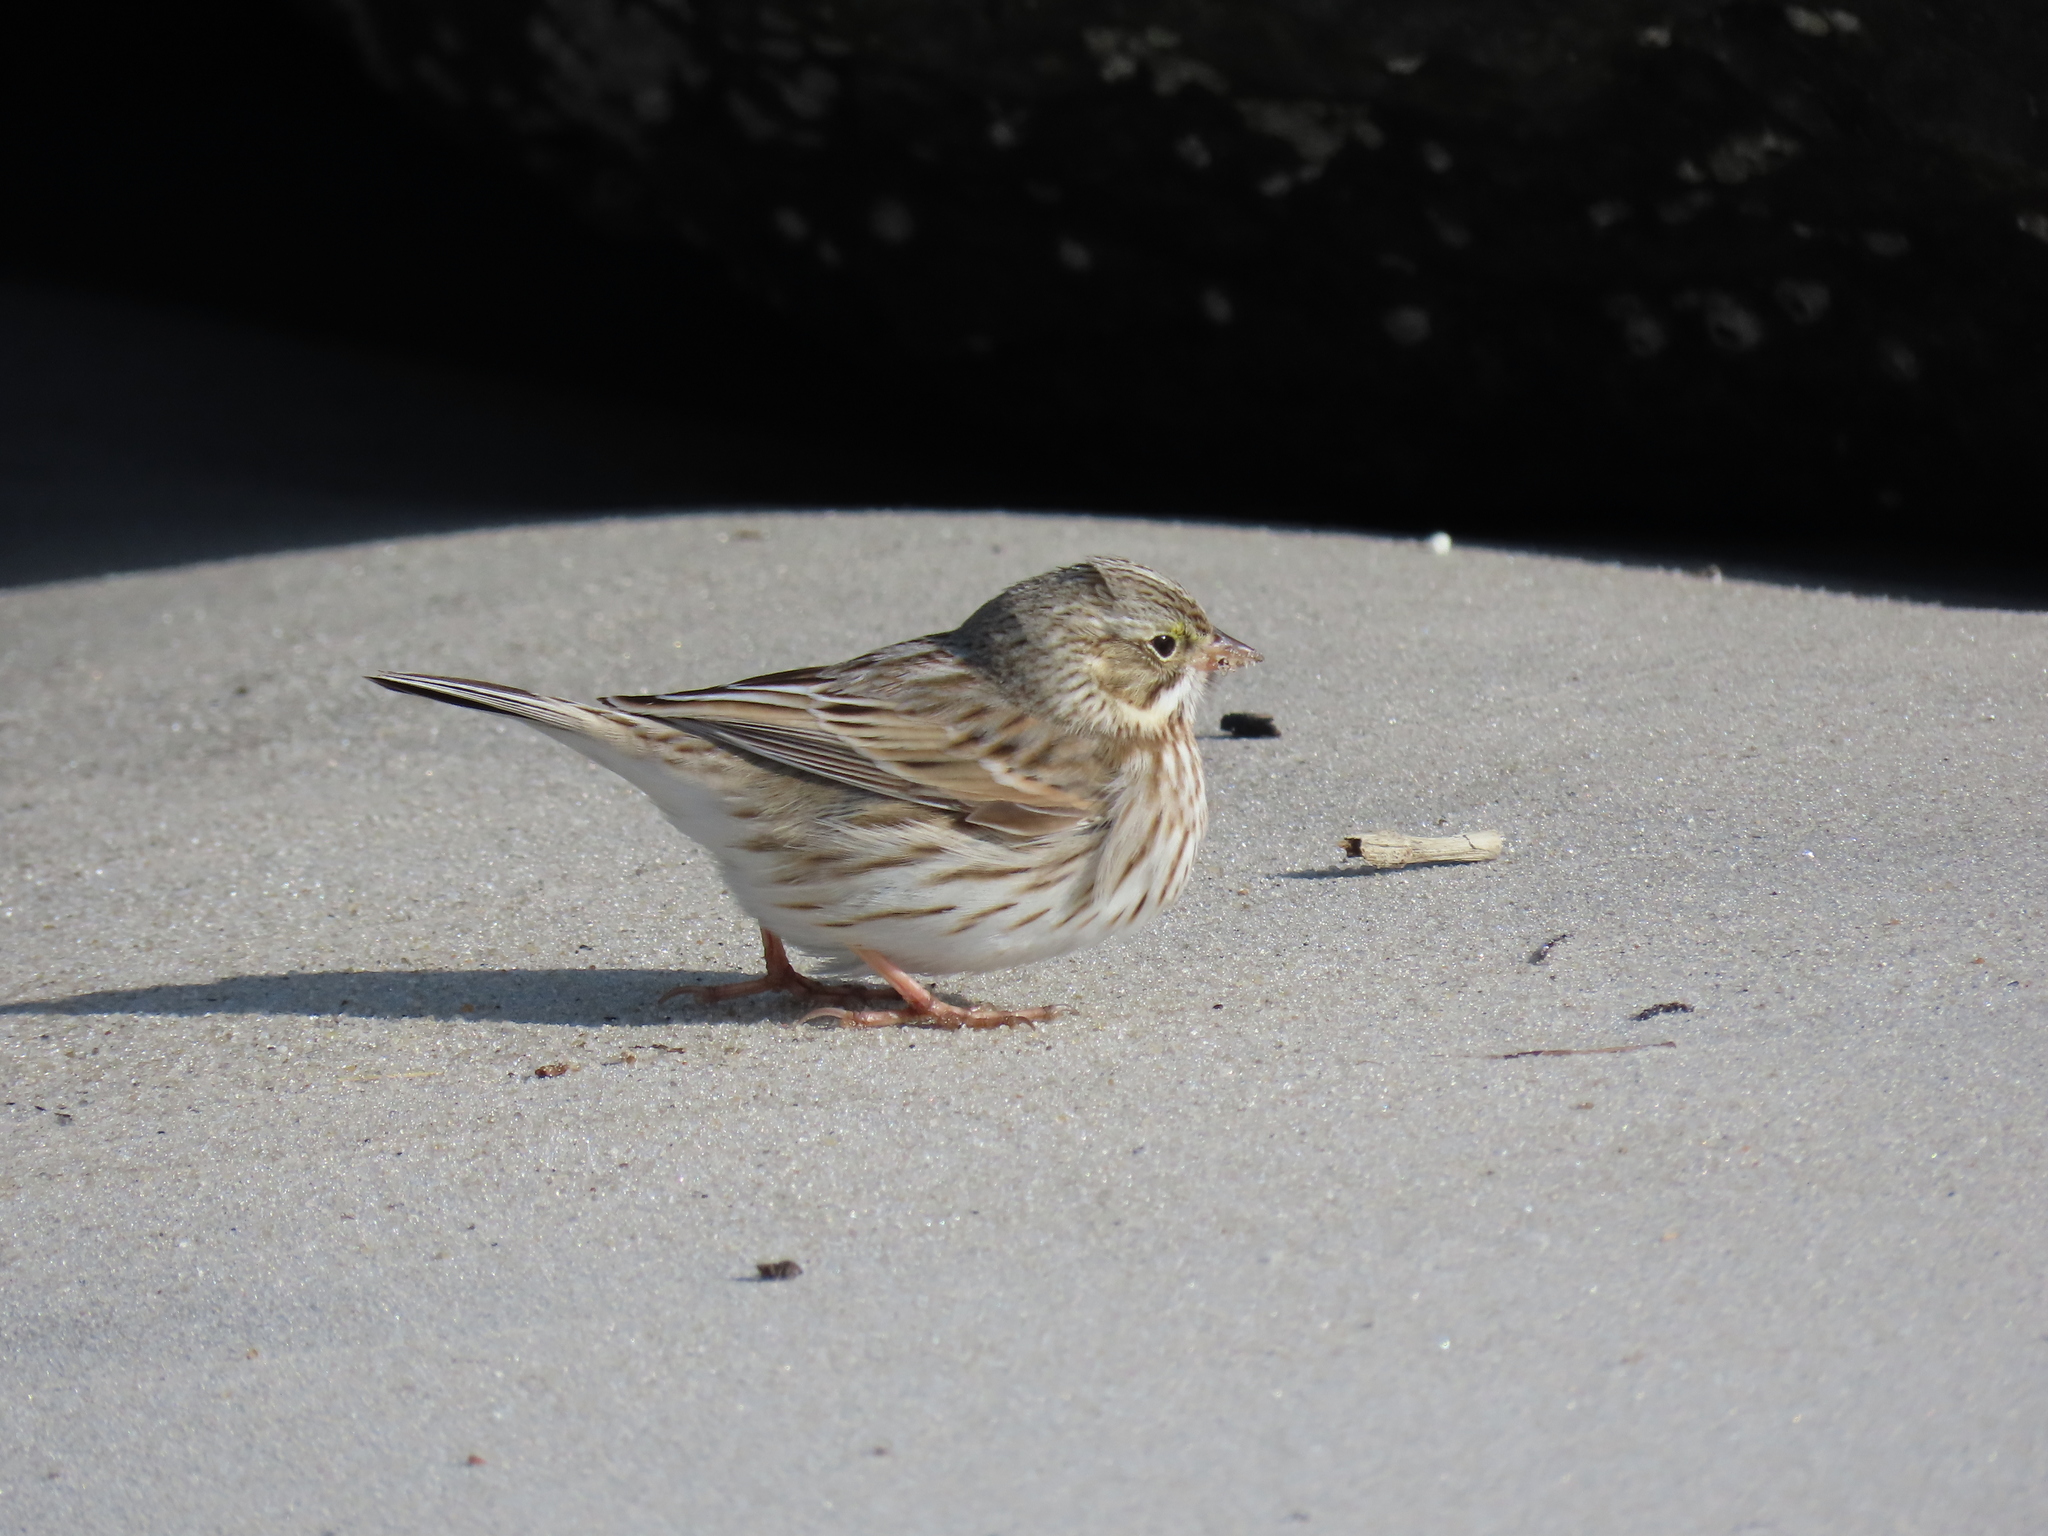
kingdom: Animalia
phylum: Chordata
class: Aves
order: Passeriformes
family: Passerellidae
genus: Passerculus
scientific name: Passerculus sandwichensis
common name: Savannah sparrow
